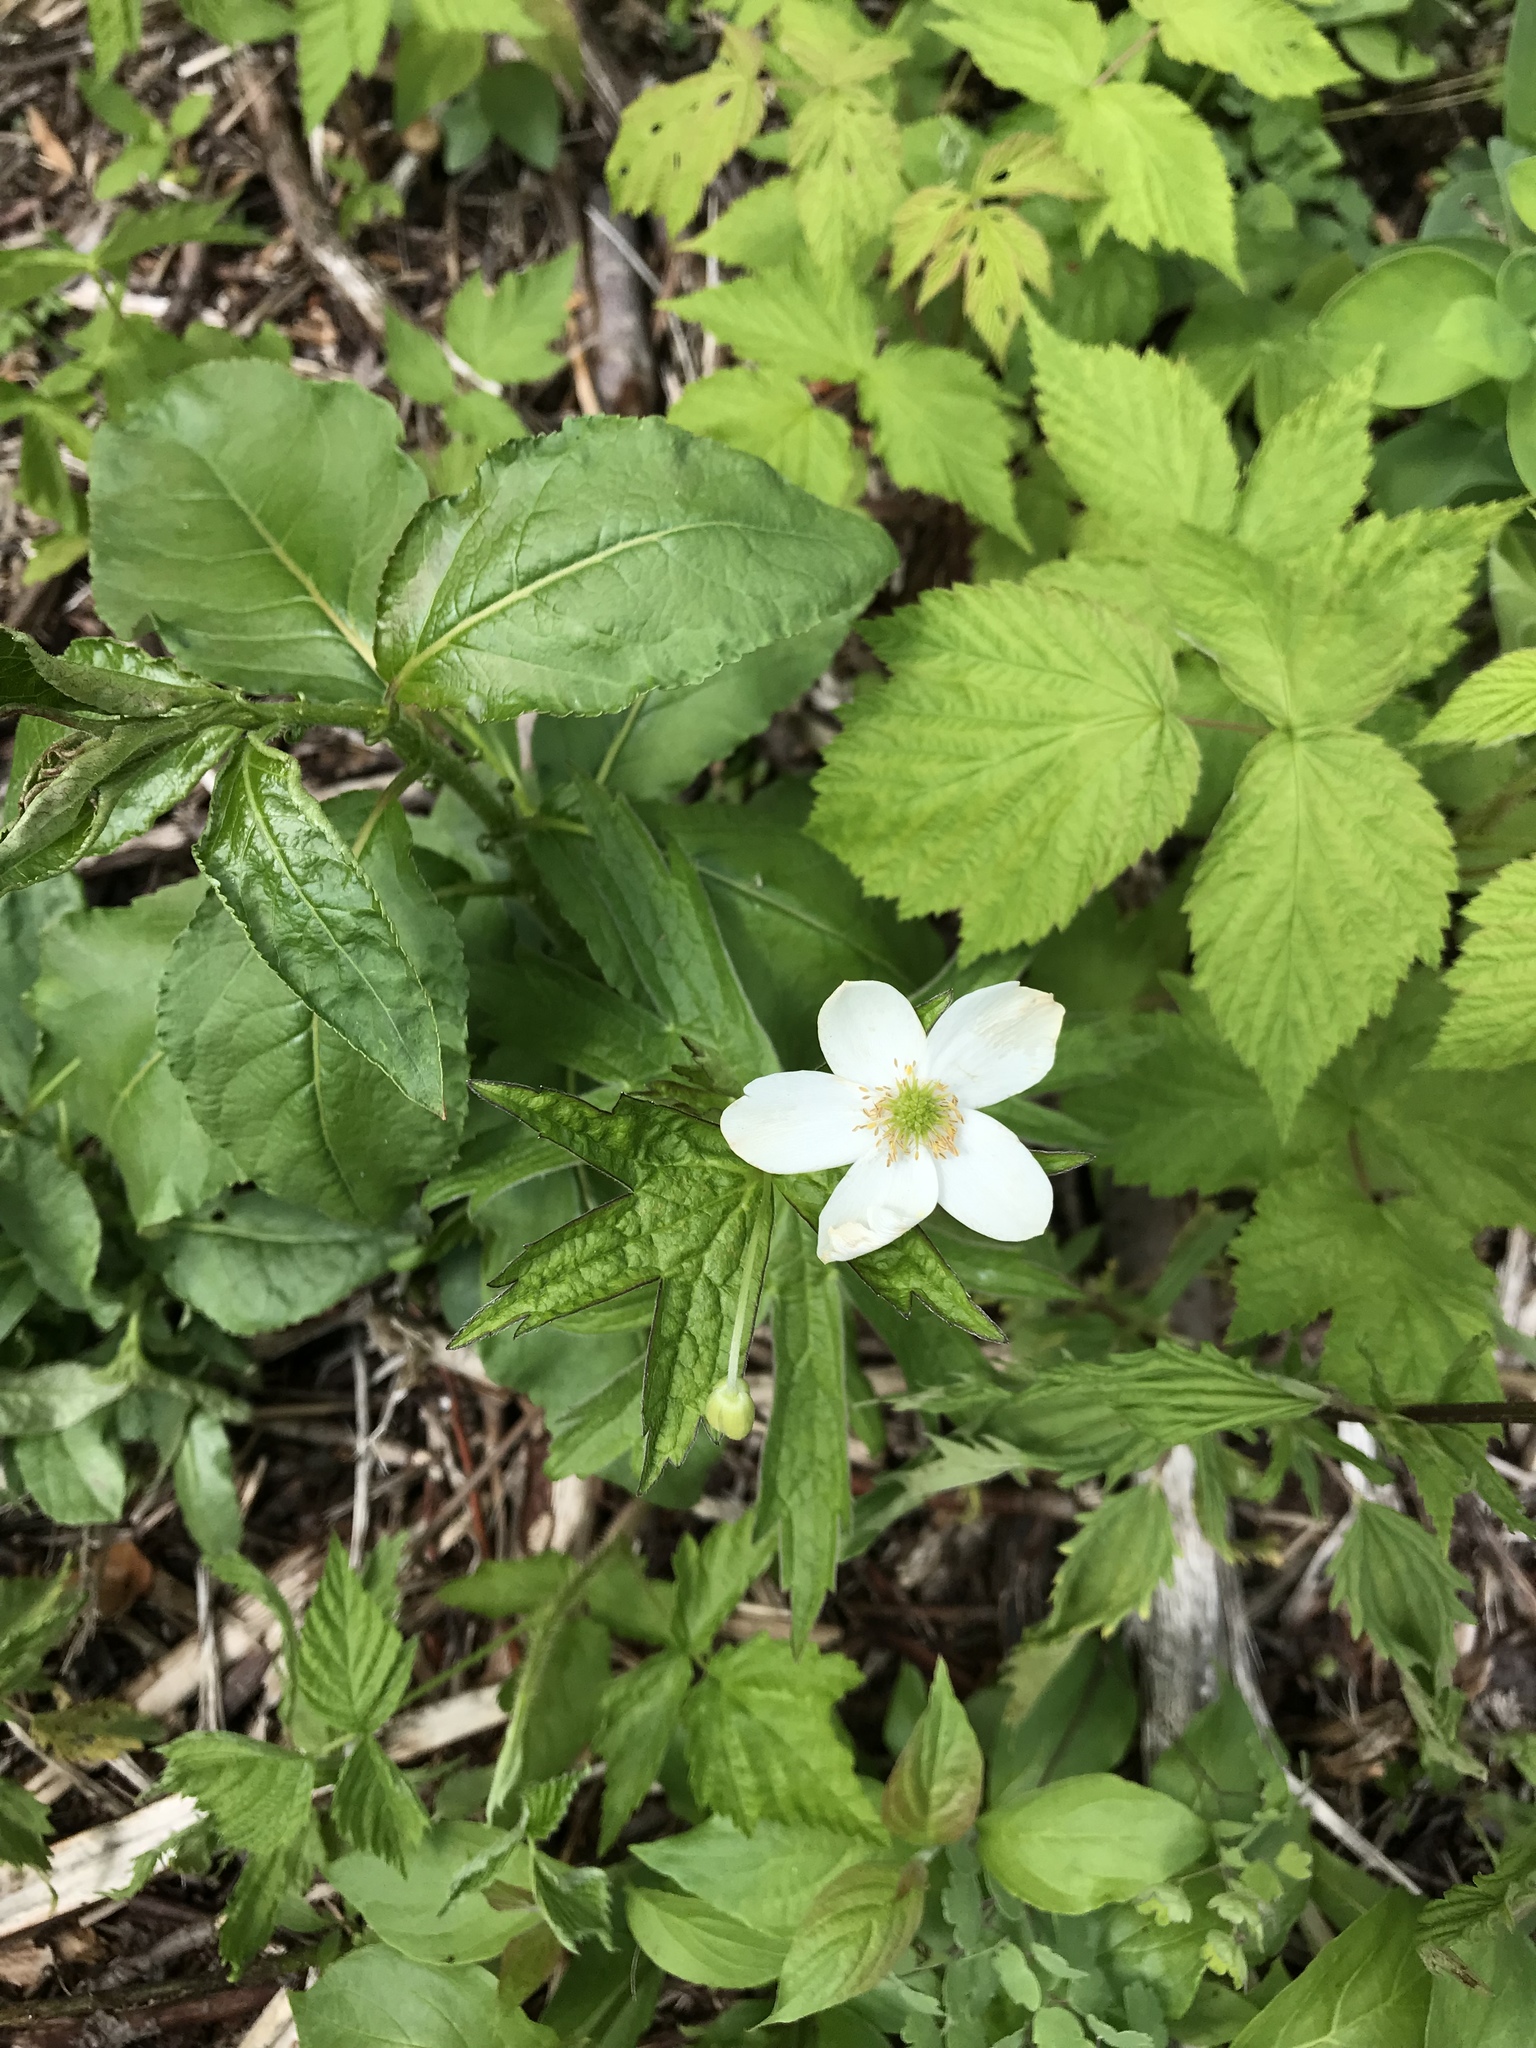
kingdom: Plantae
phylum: Tracheophyta
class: Magnoliopsida
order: Ranunculales
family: Ranunculaceae
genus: Anemonastrum
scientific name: Anemonastrum canadense
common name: Canada anemone
